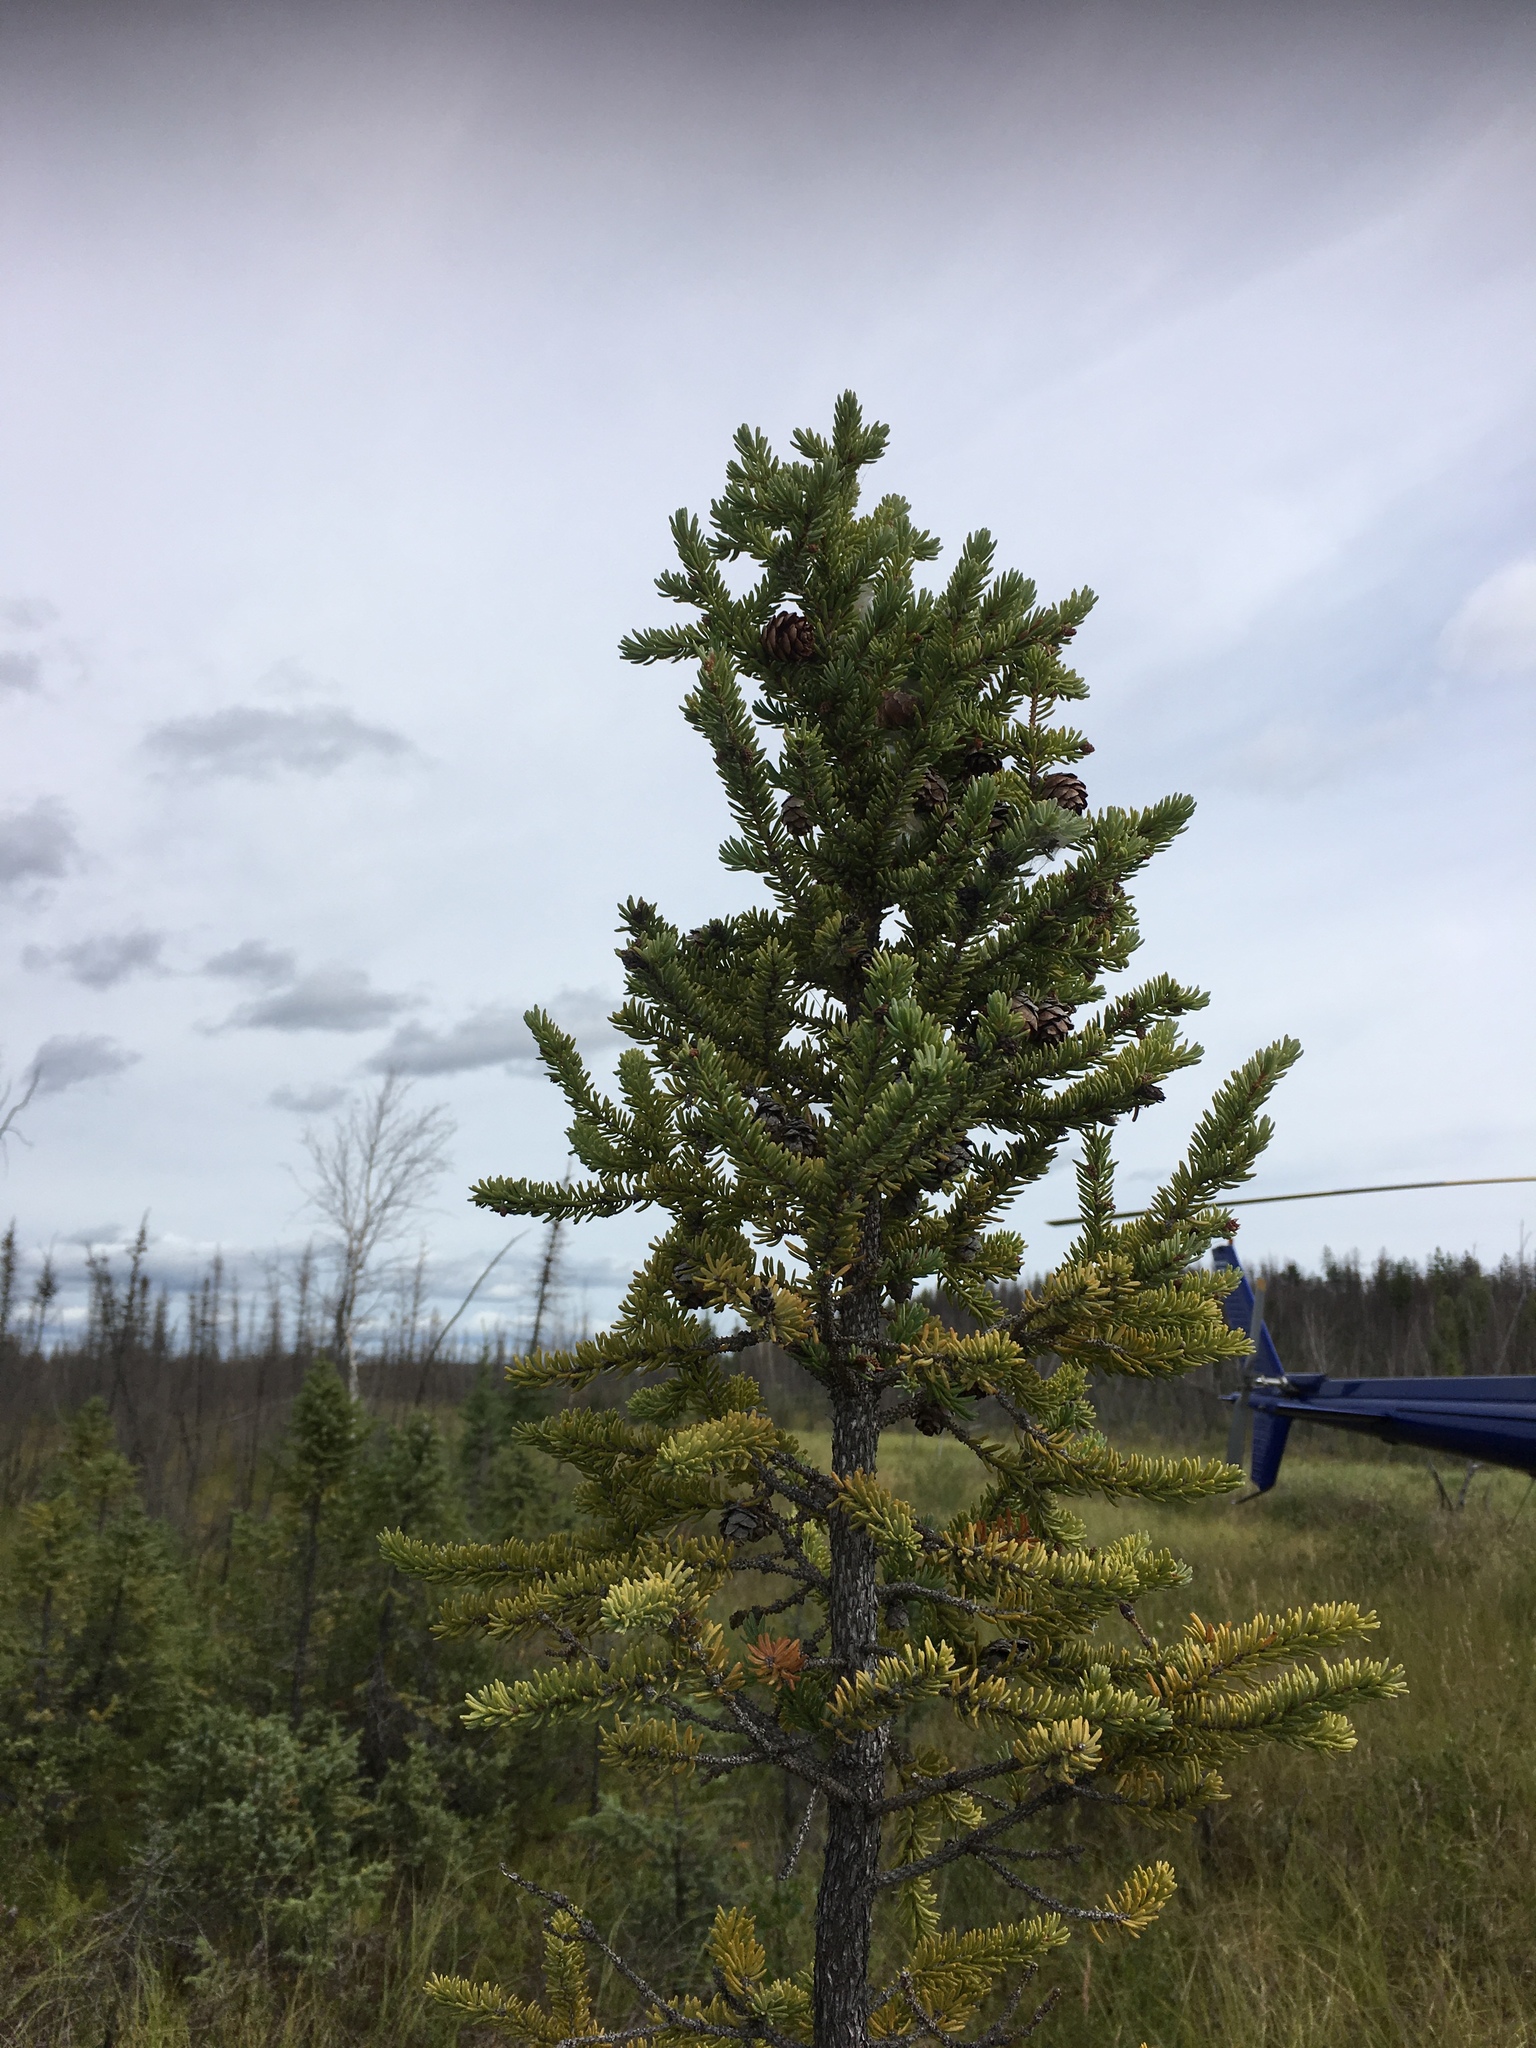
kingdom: Plantae
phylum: Tracheophyta
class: Pinopsida
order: Pinales
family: Pinaceae
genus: Picea
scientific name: Picea mariana
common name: Black spruce
